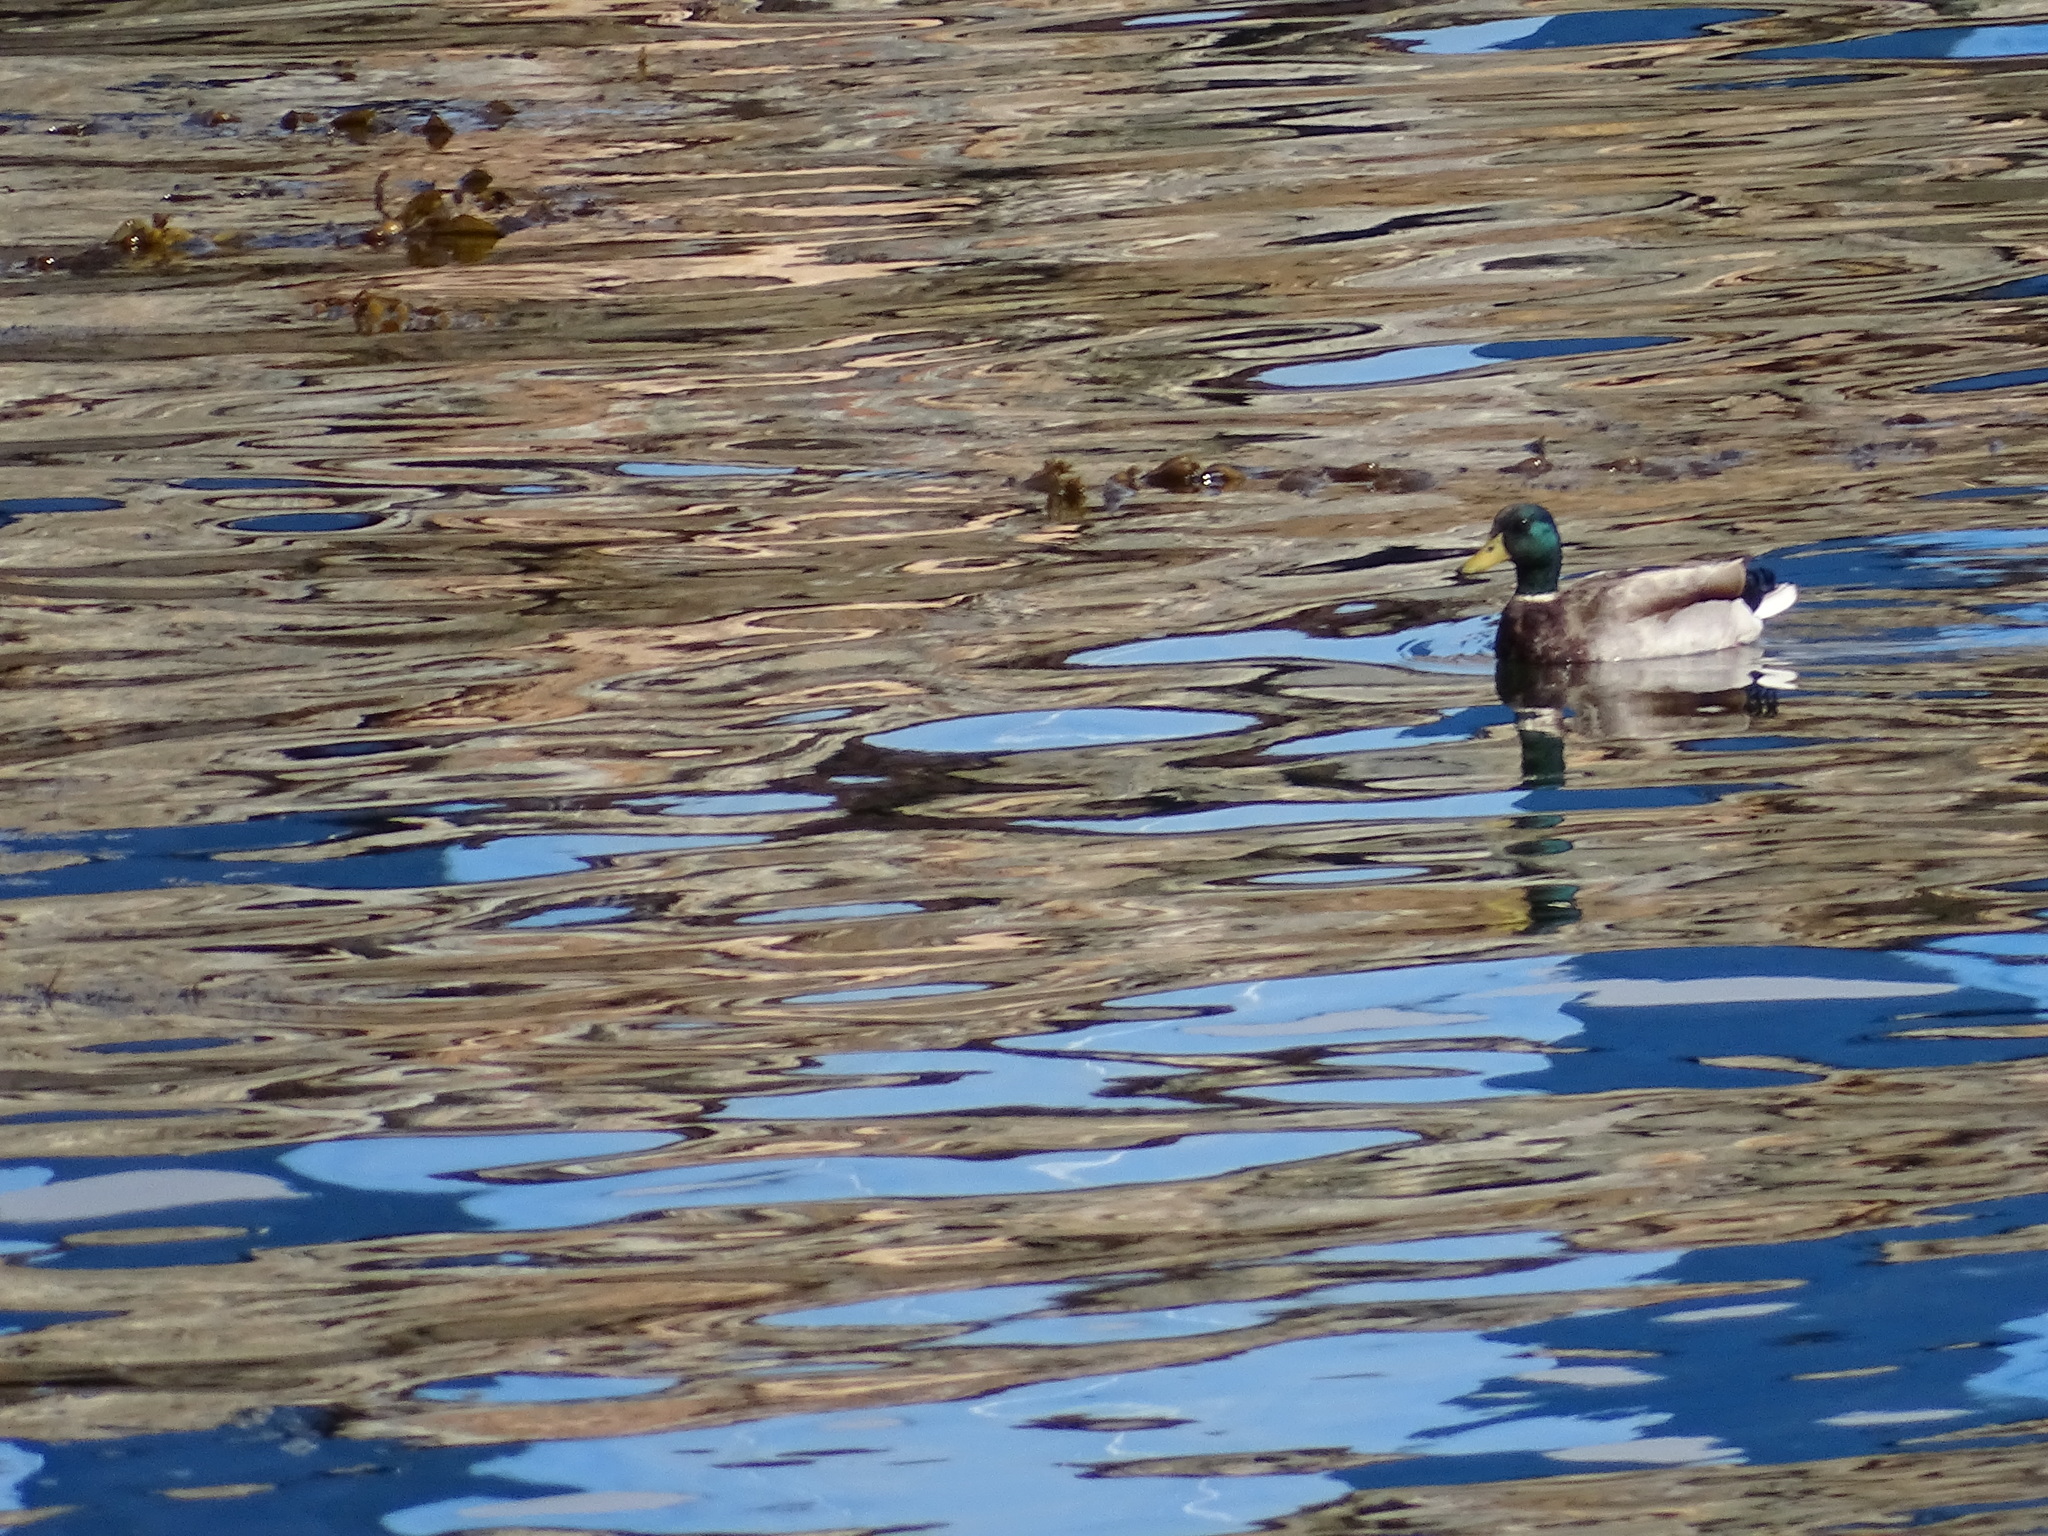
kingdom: Animalia
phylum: Chordata
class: Aves
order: Anseriformes
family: Anatidae
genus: Anas
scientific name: Anas platyrhynchos
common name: Mallard
